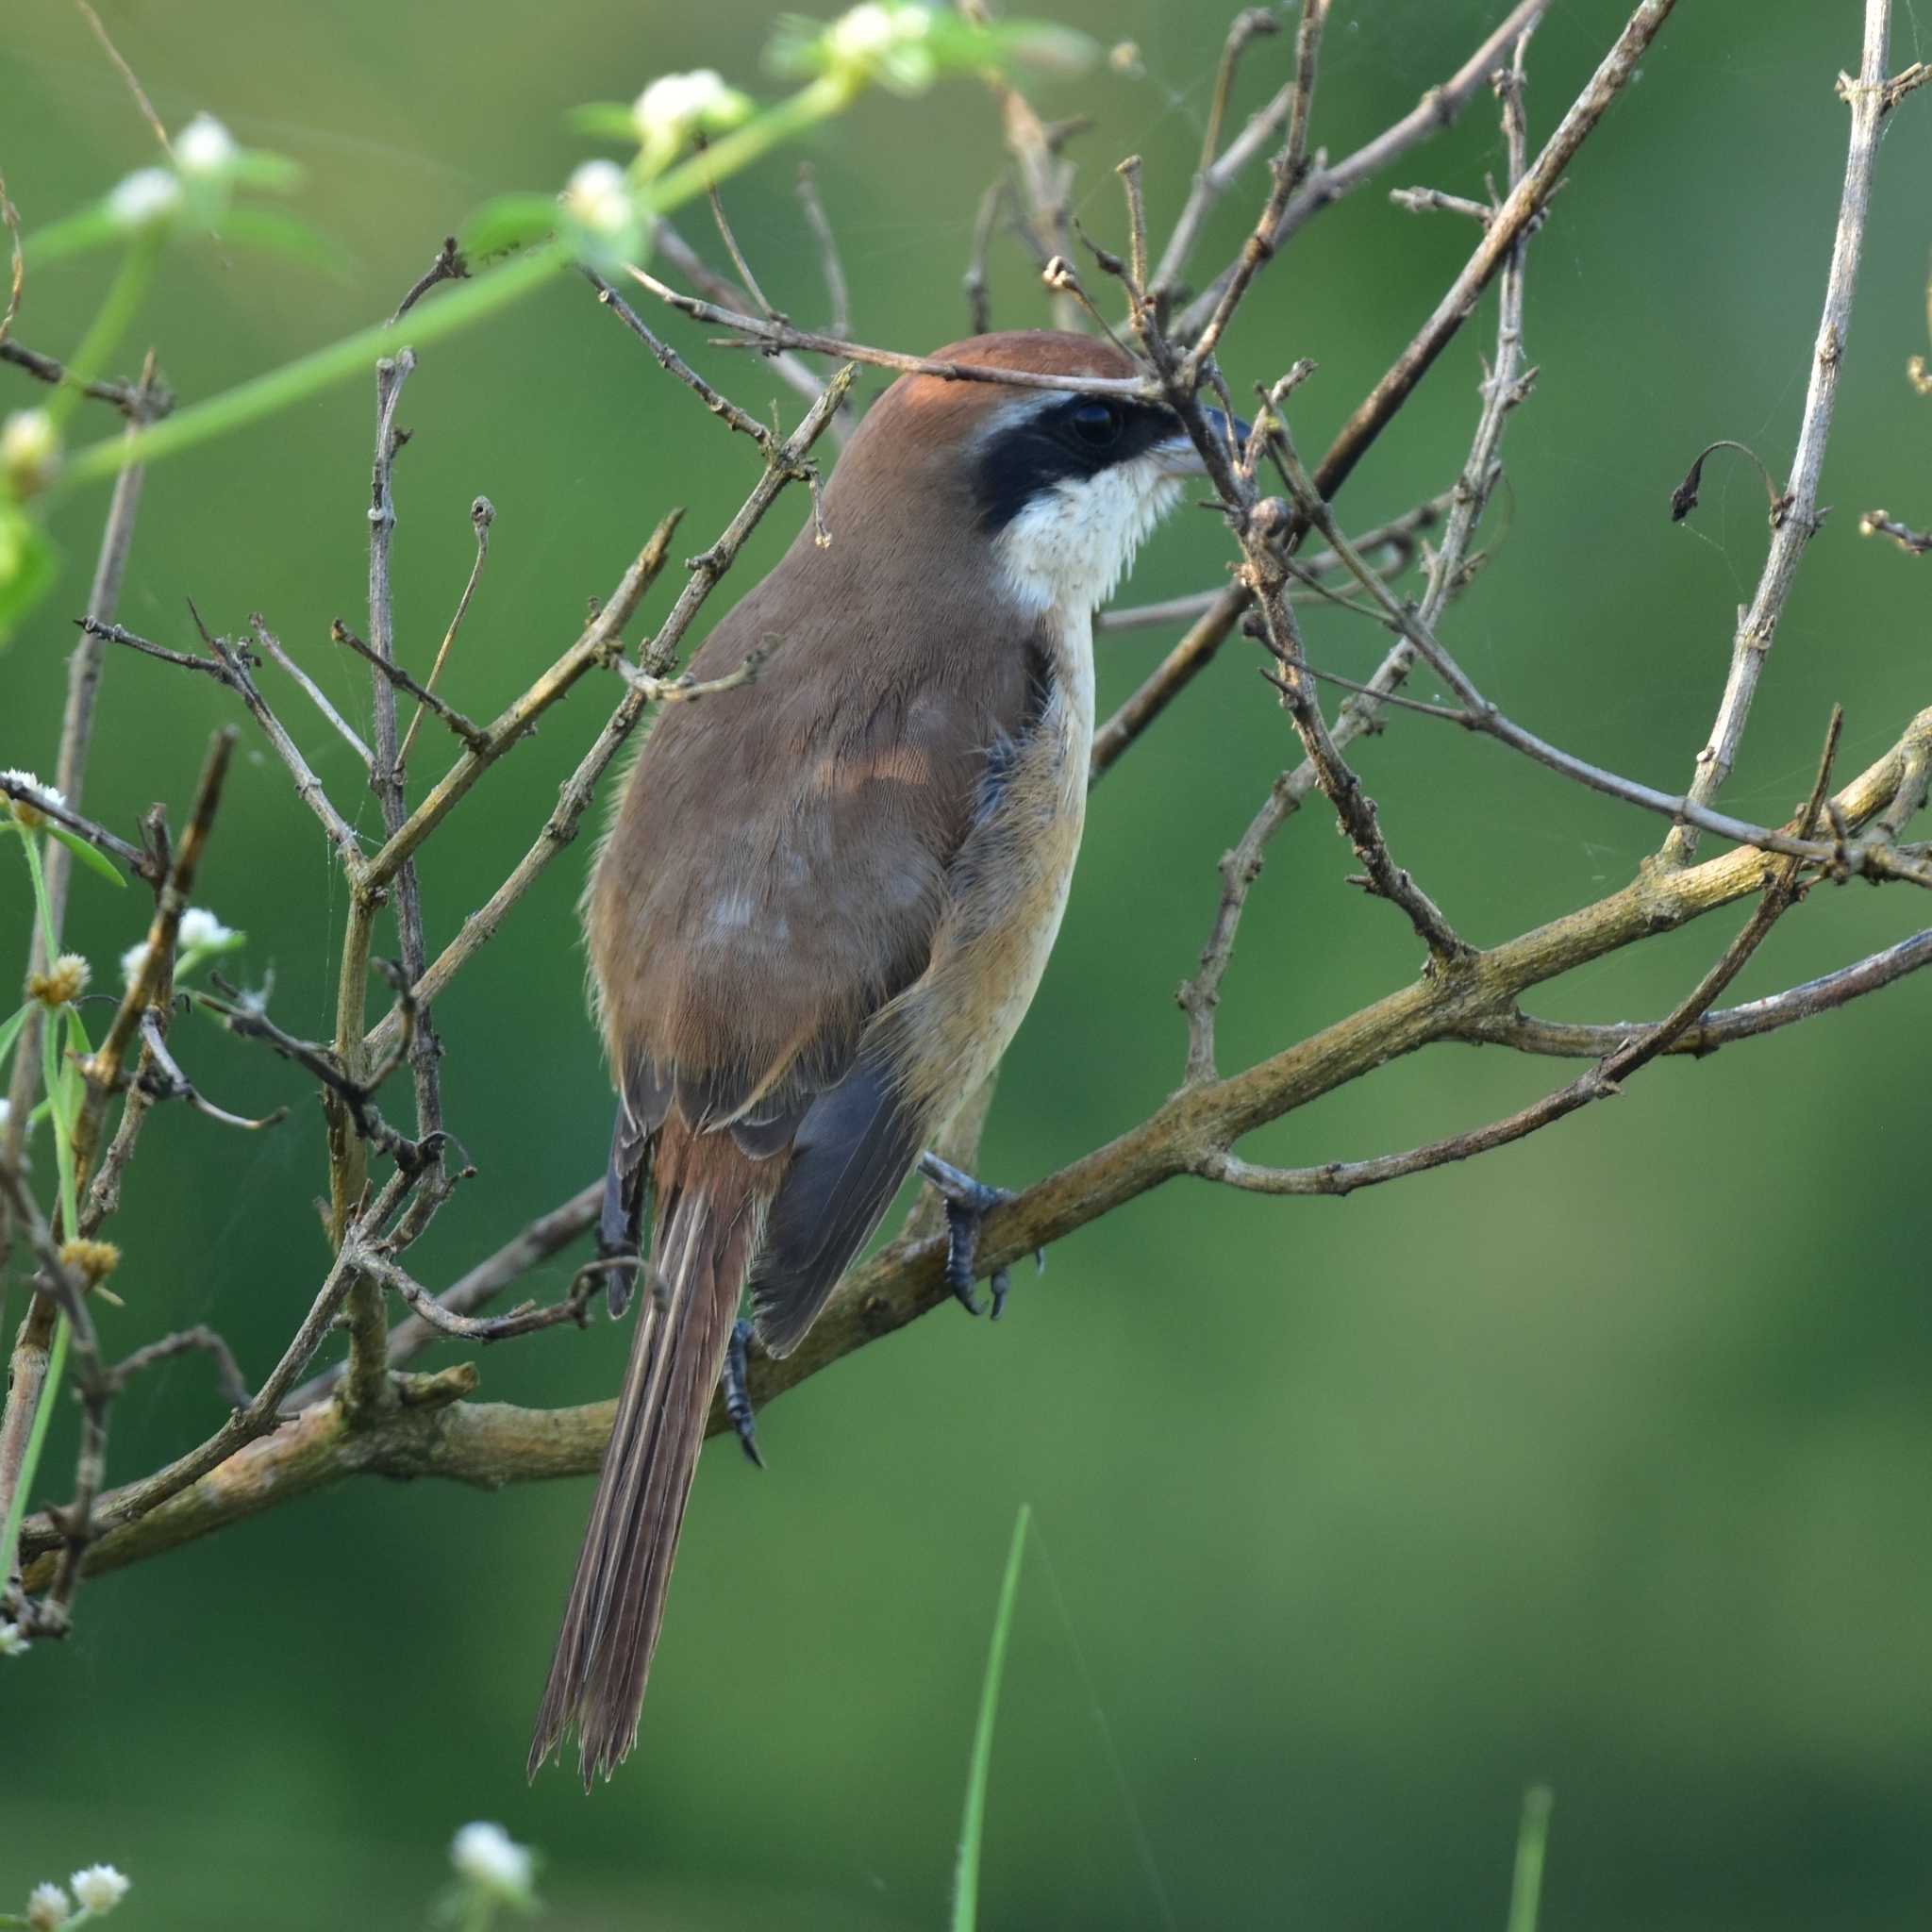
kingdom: Animalia
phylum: Chordata
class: Aves
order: Passeriformes
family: Laniidae
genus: Lanius
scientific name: Lanius cristatus
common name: Brown shrike
